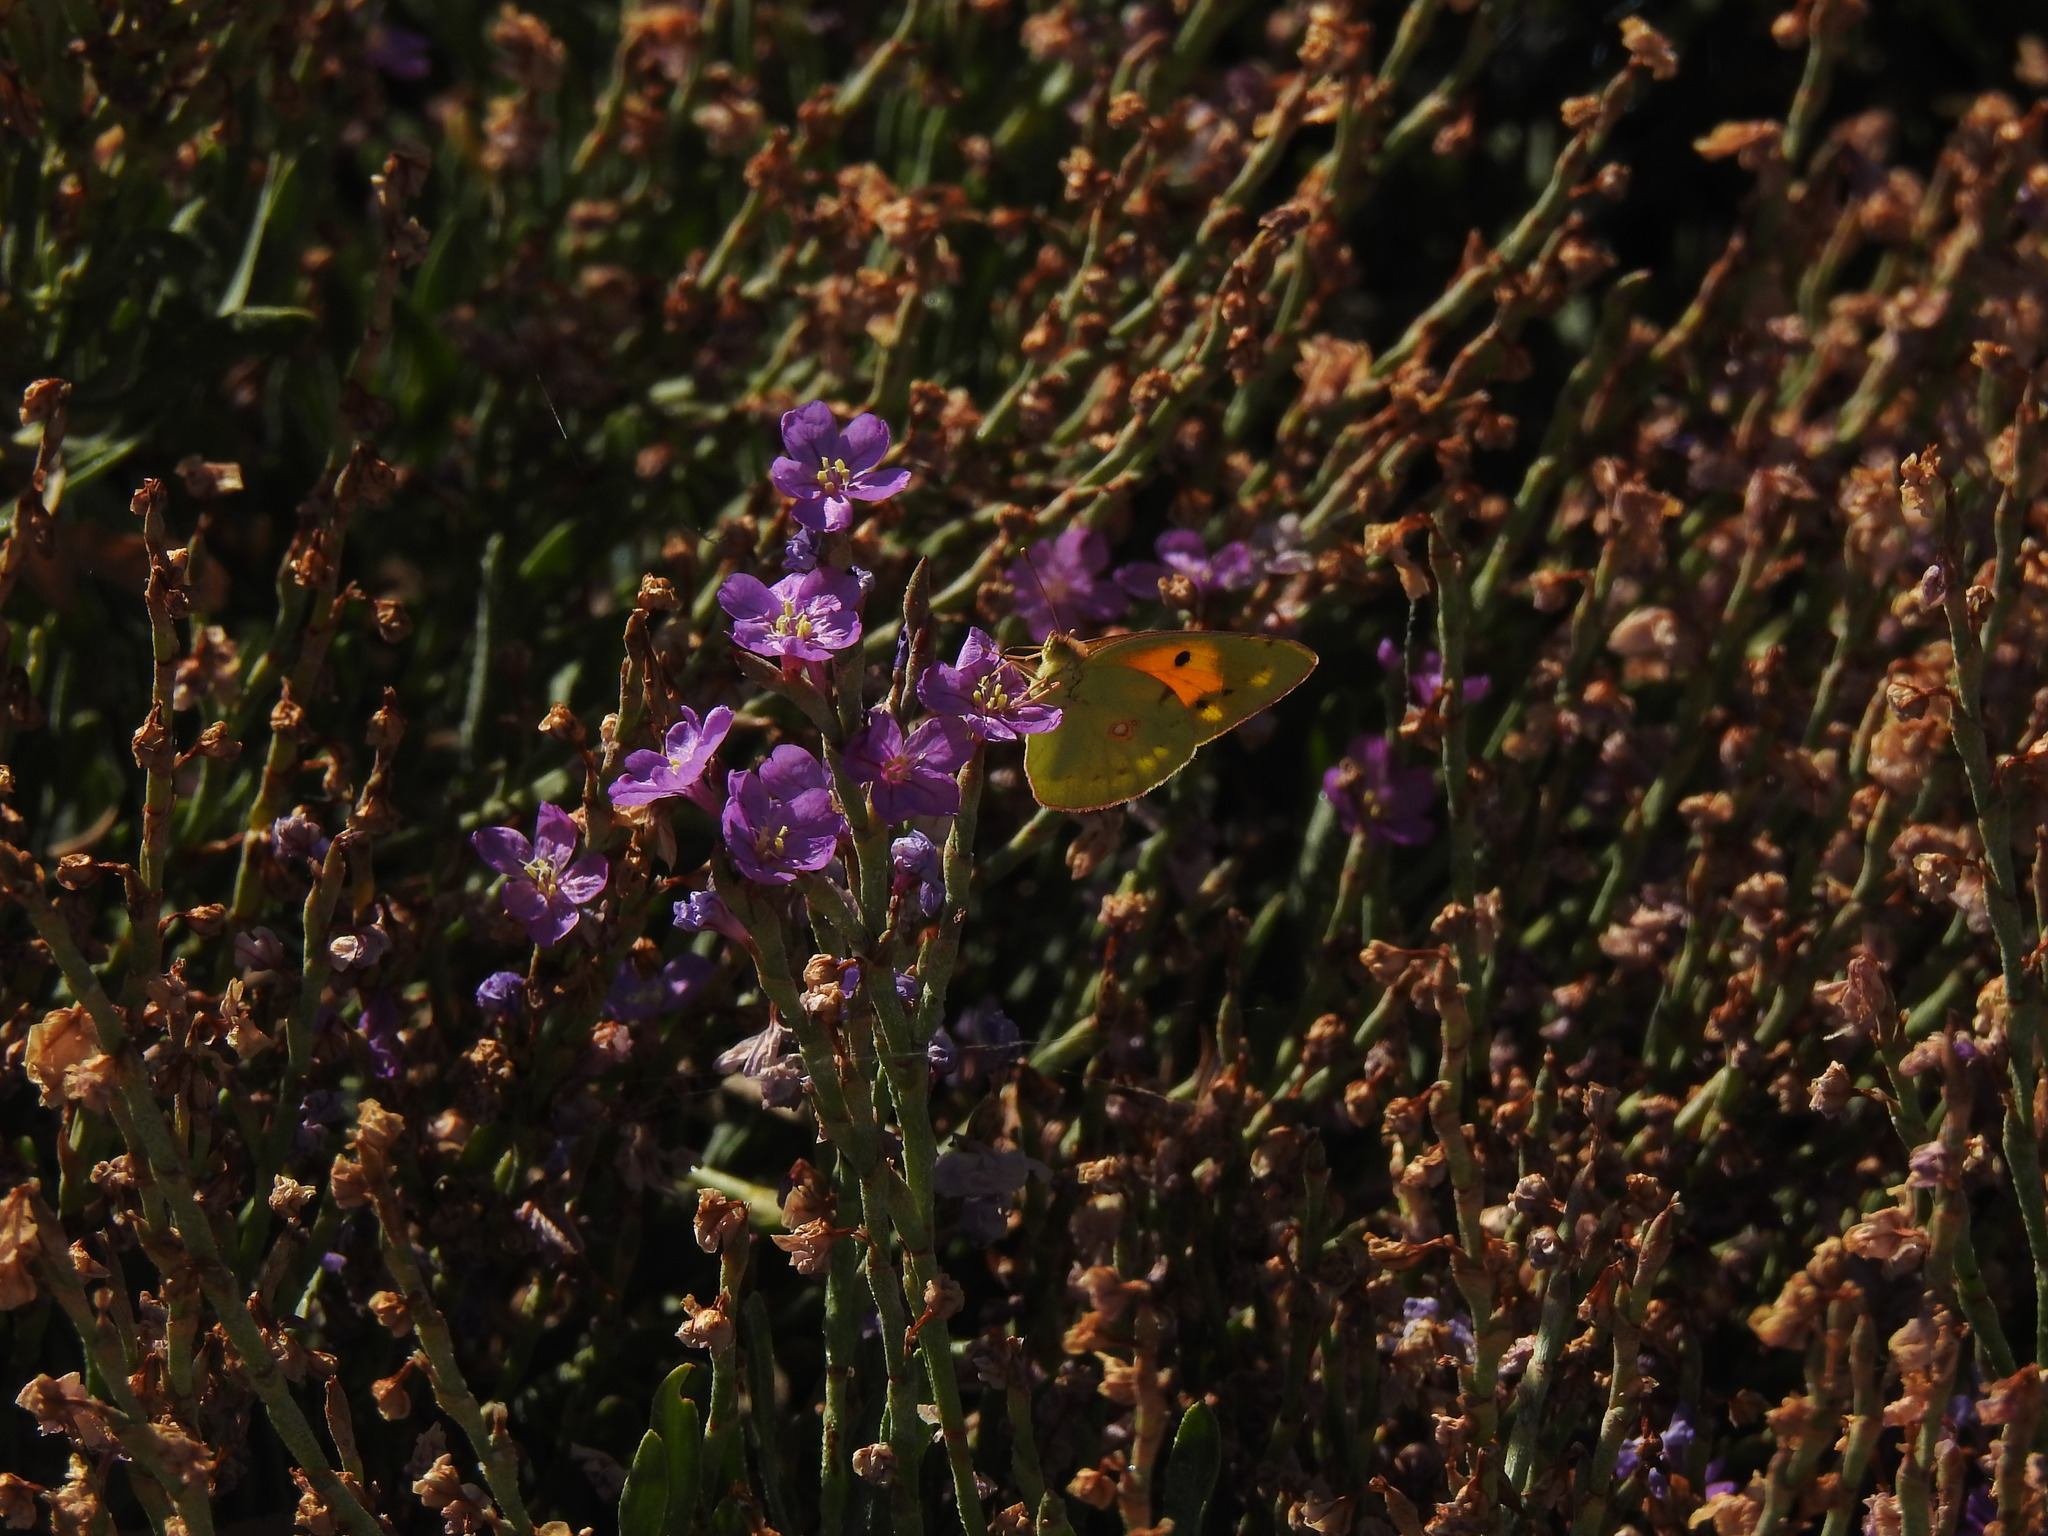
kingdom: Animalia
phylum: Arthropoda
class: Insecta
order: Lepidoptera
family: Pieridae
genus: Colias
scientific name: Colias croceus
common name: Clouded yellow
